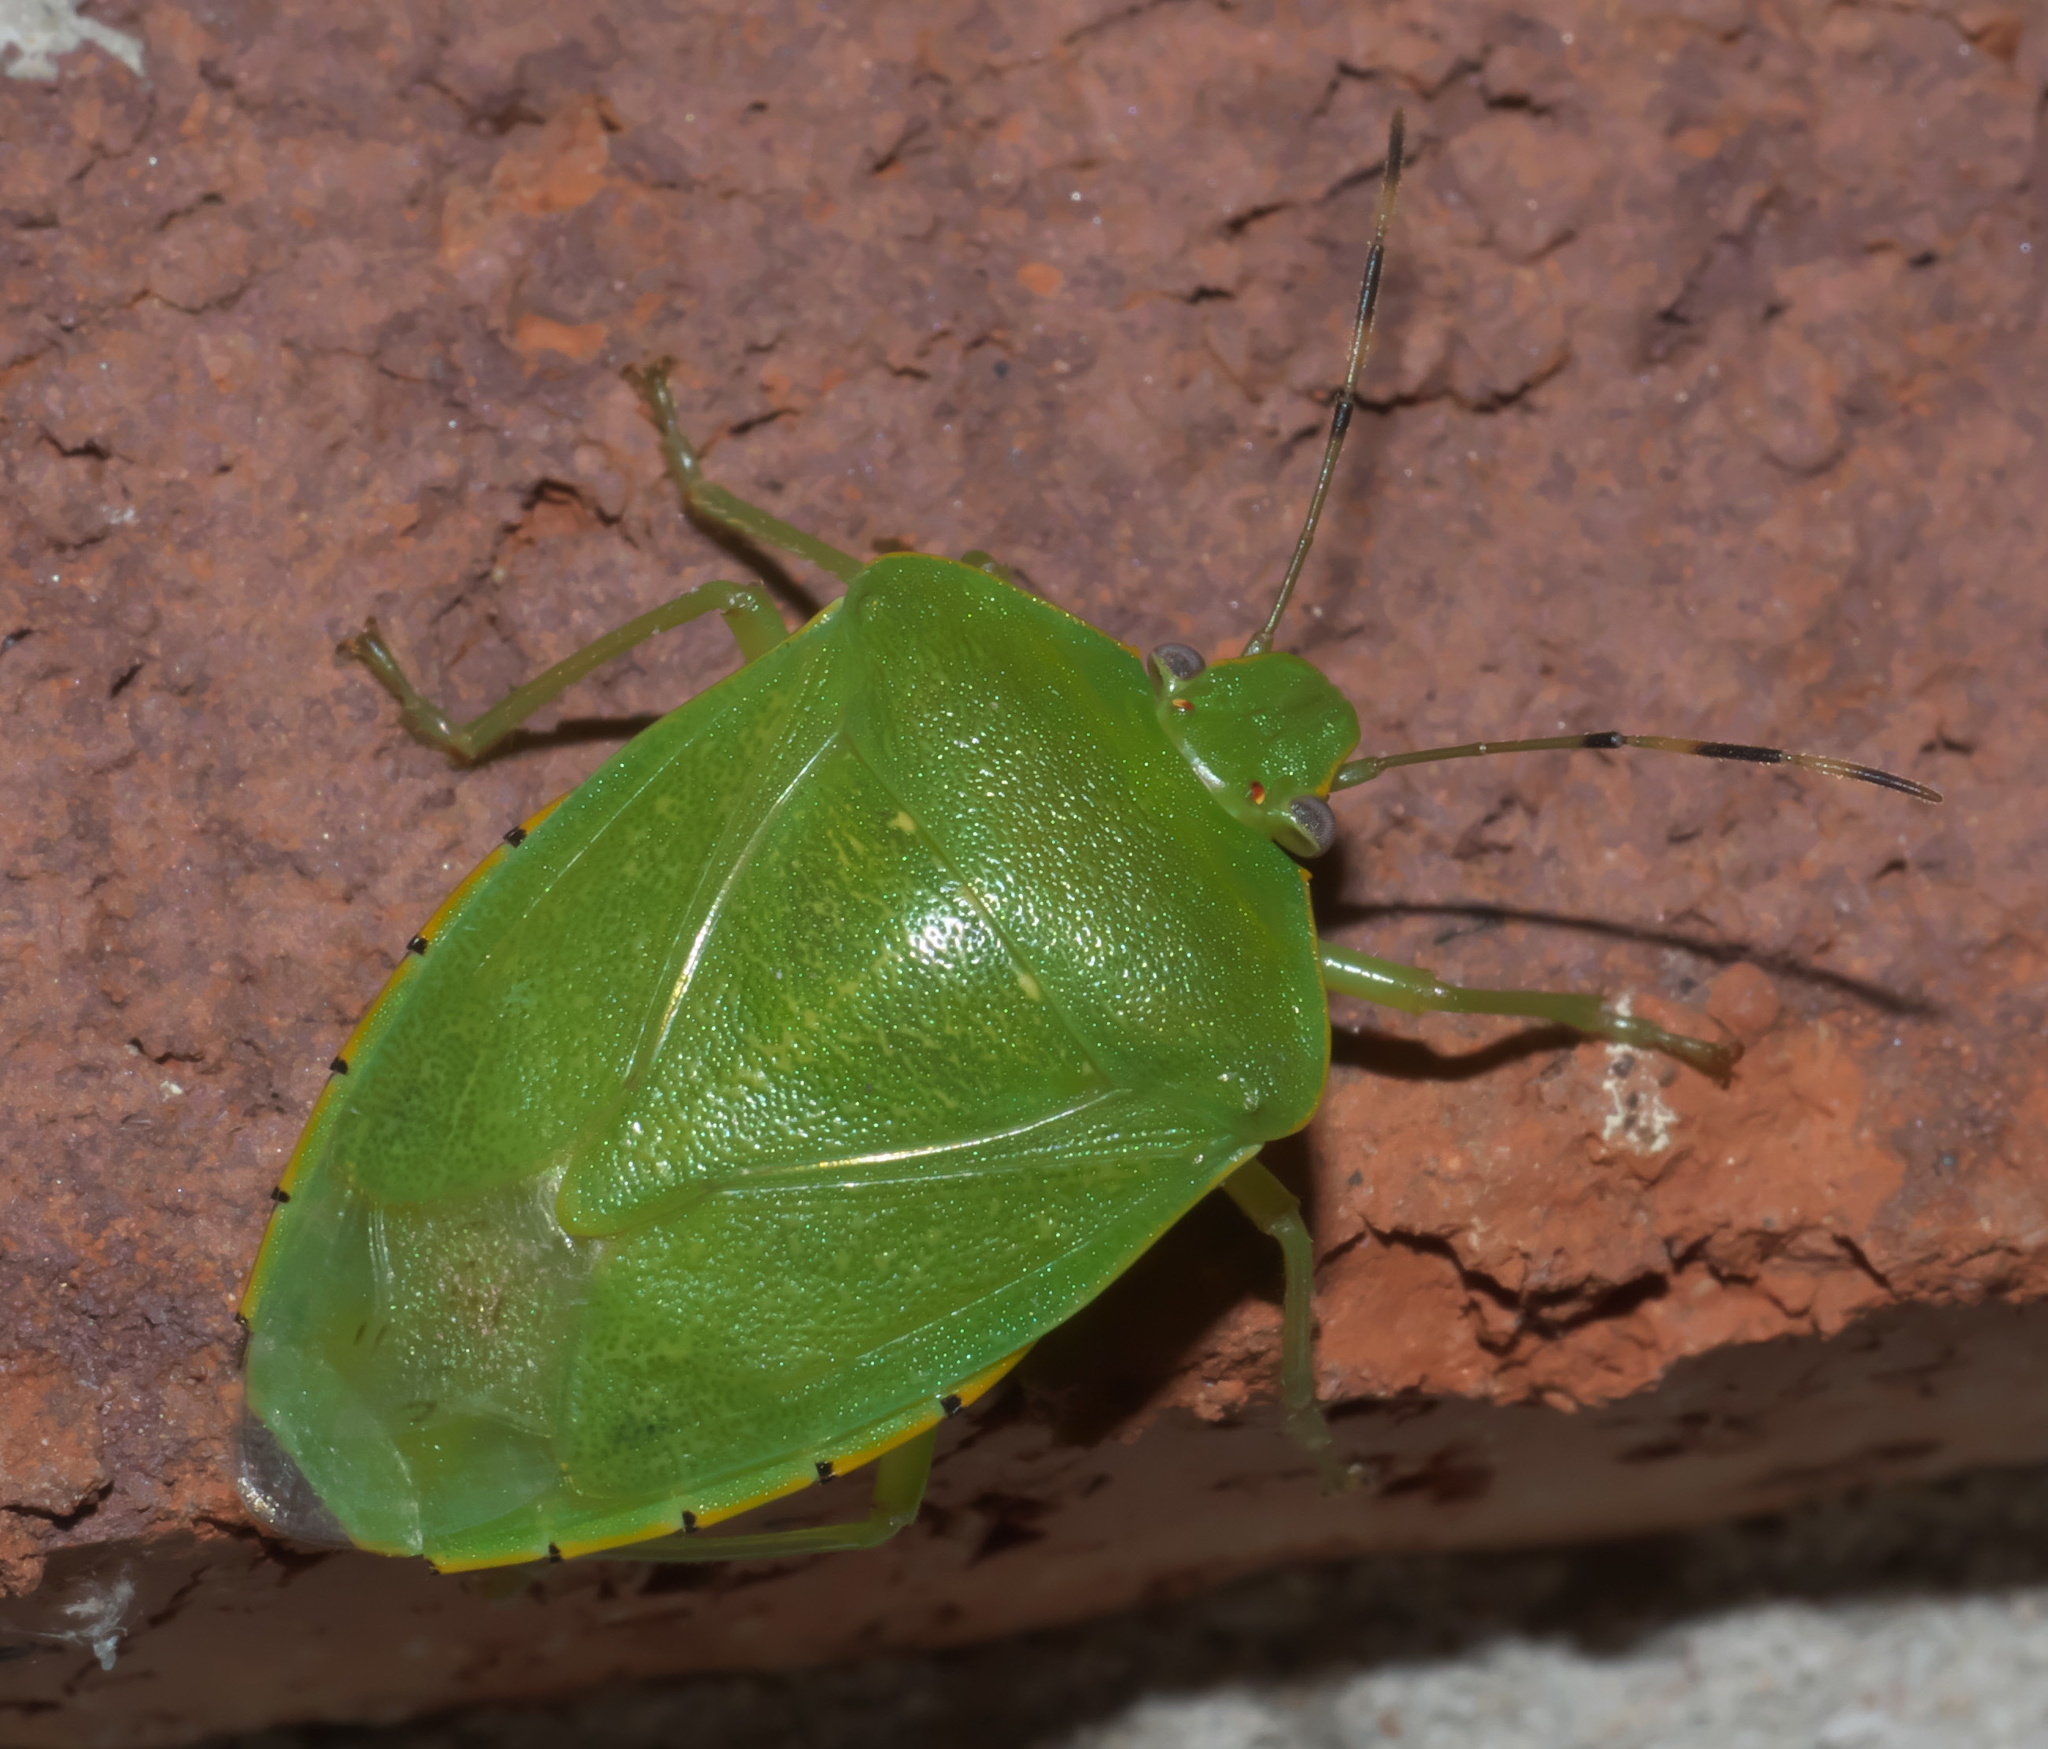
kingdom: Animalia
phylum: Arthropoda
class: Insecta
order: Hemiptera
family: Pentatomidae
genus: Chinavia
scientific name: Chinavia hilaris
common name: Green stink bug
